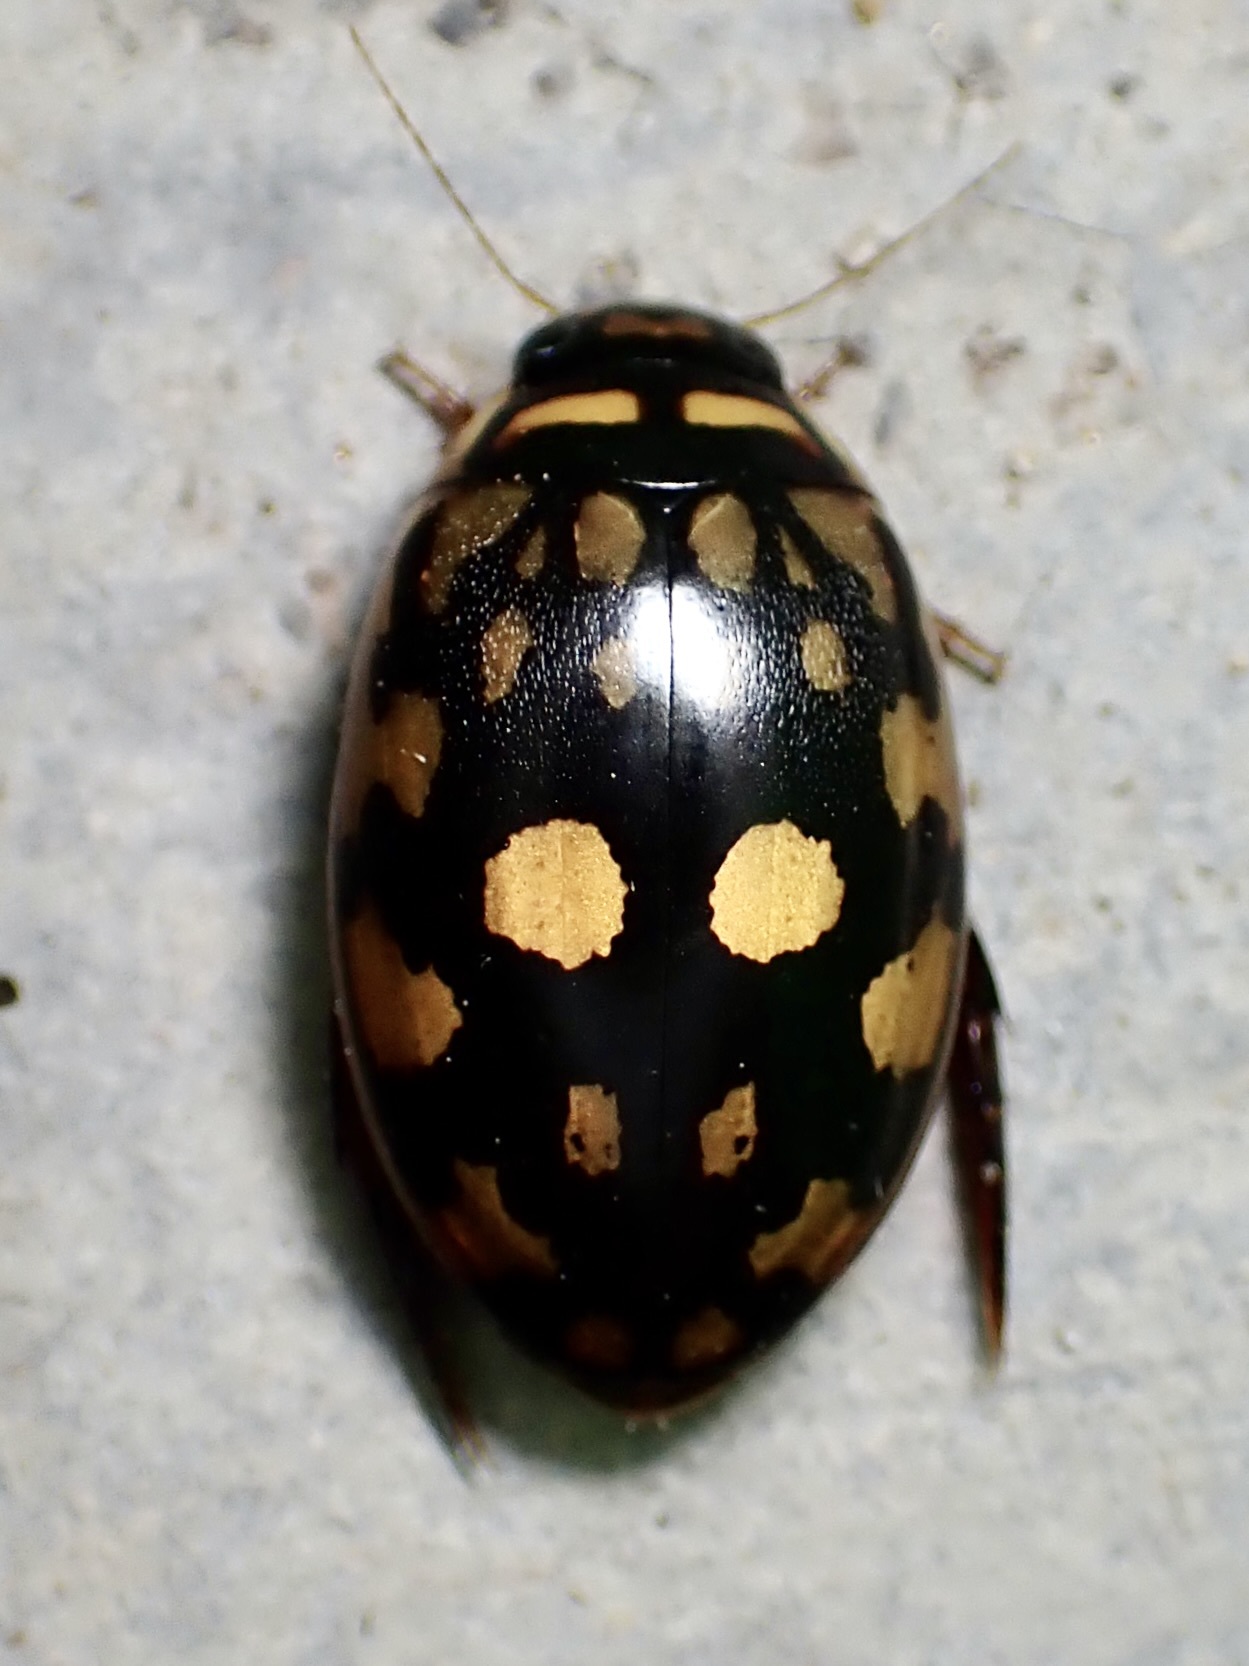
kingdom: Animalia
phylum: Arthropoda
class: Insecta
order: Coleoptera
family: Dytiscidae
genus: Thermonectus
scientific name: Thermonectus marmoratus
